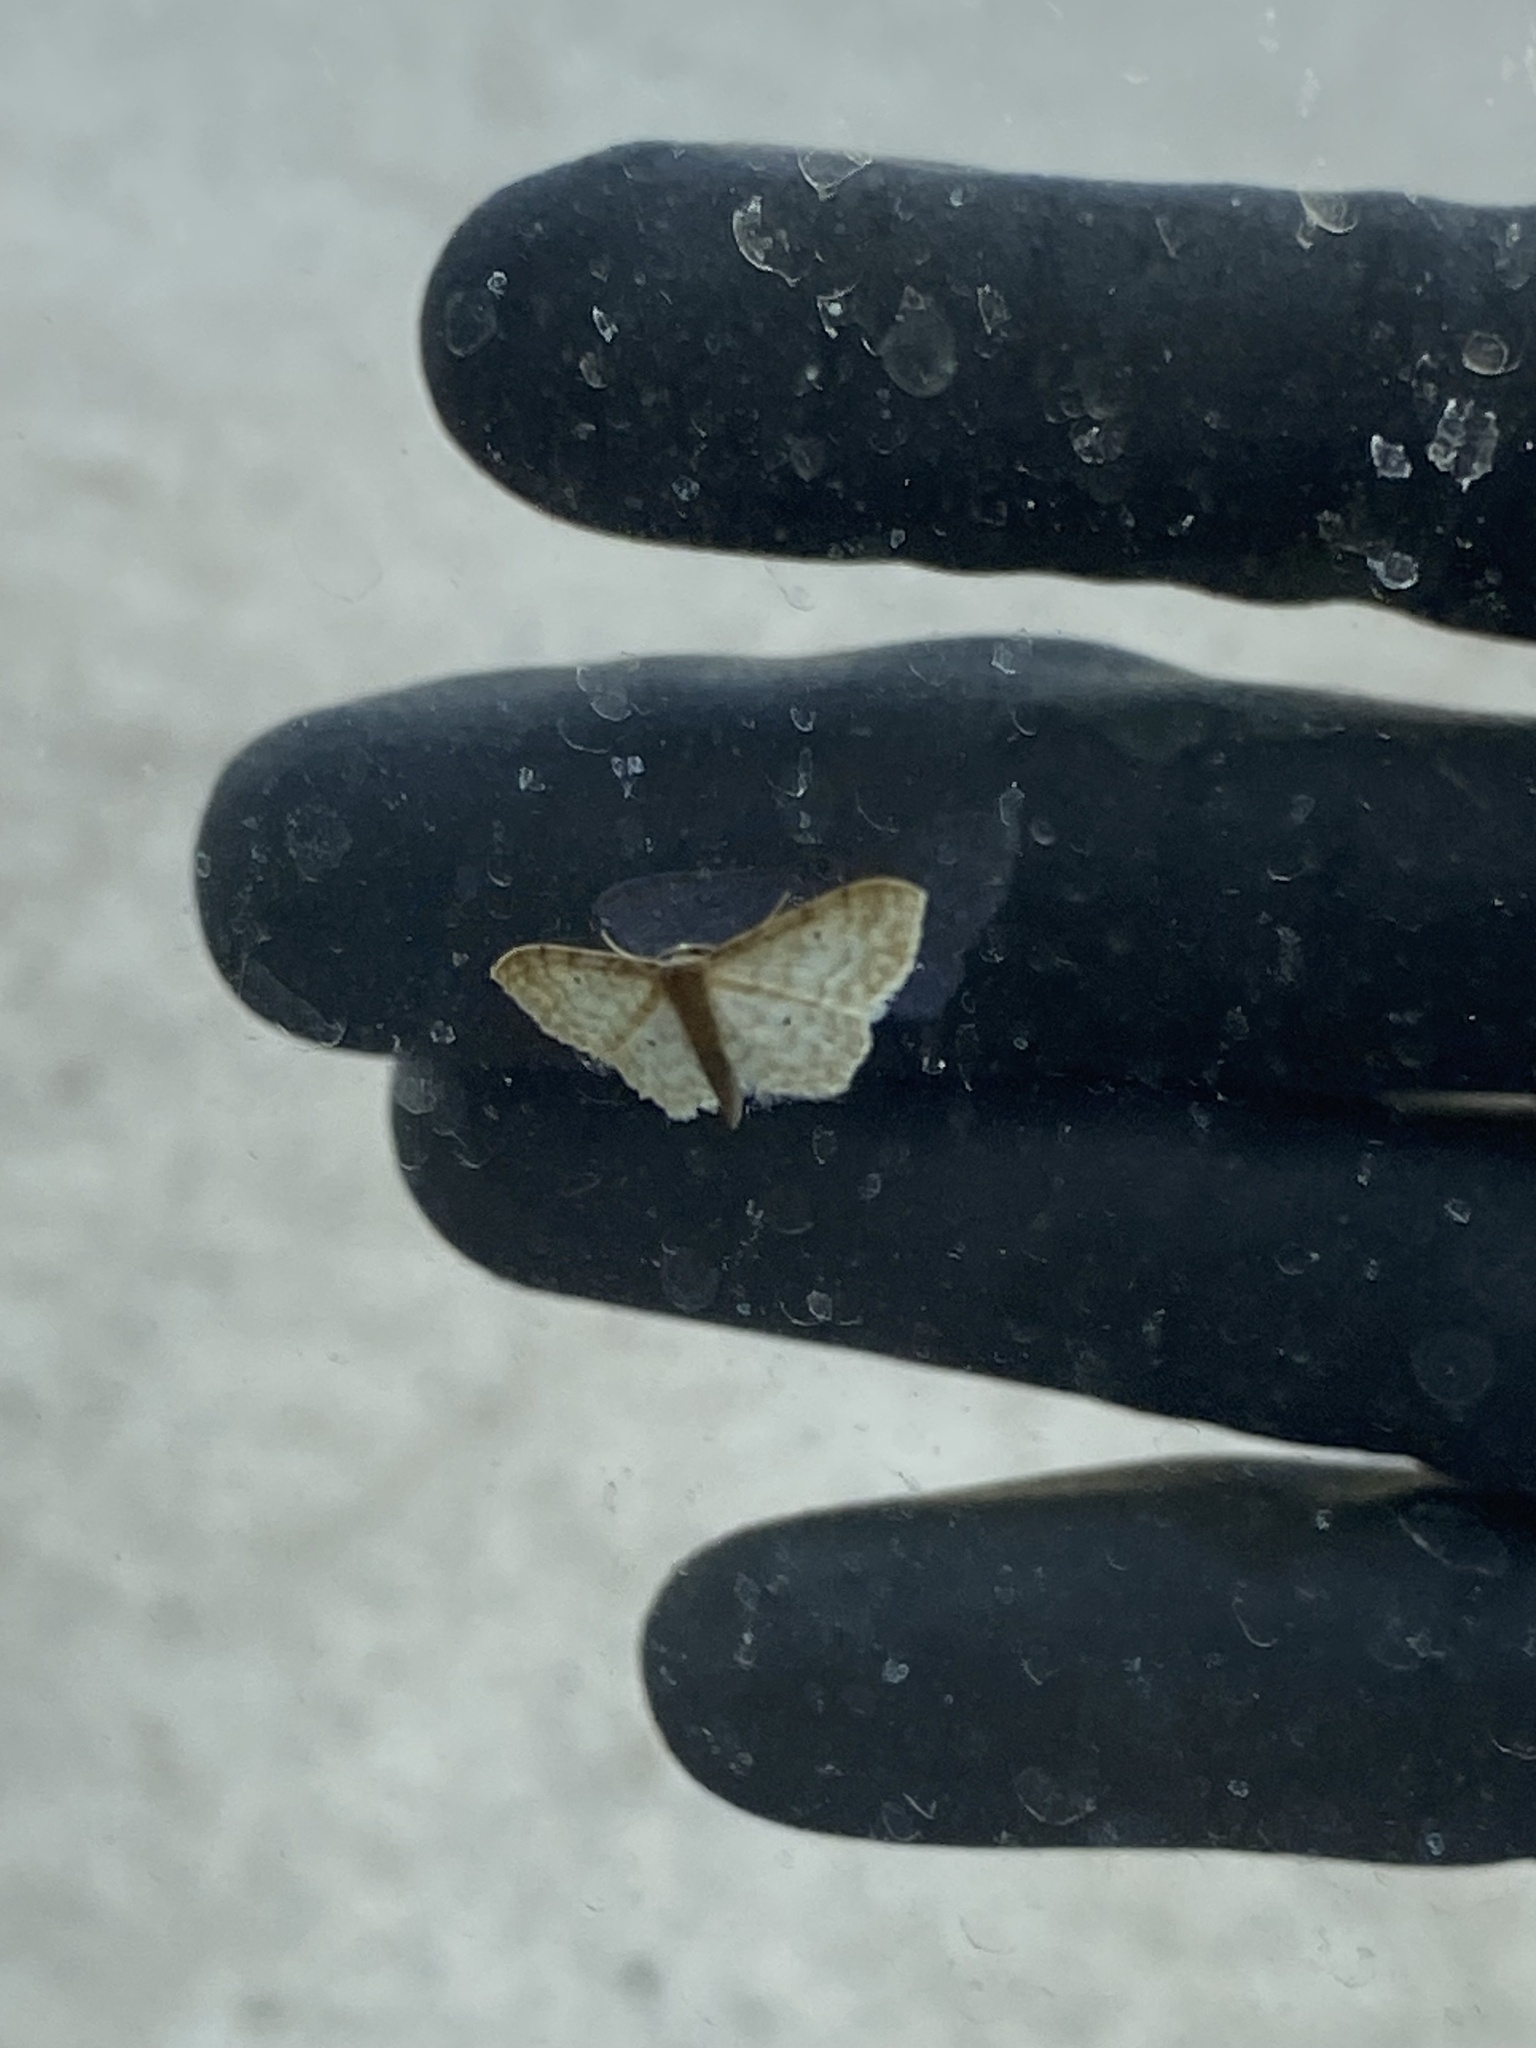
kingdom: Animalia
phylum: Arthropoda
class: Insecta
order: Lepidoptera
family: Geometridae
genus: Idaea
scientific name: Idaea fuscovenosa
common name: Dwarf cream wave
